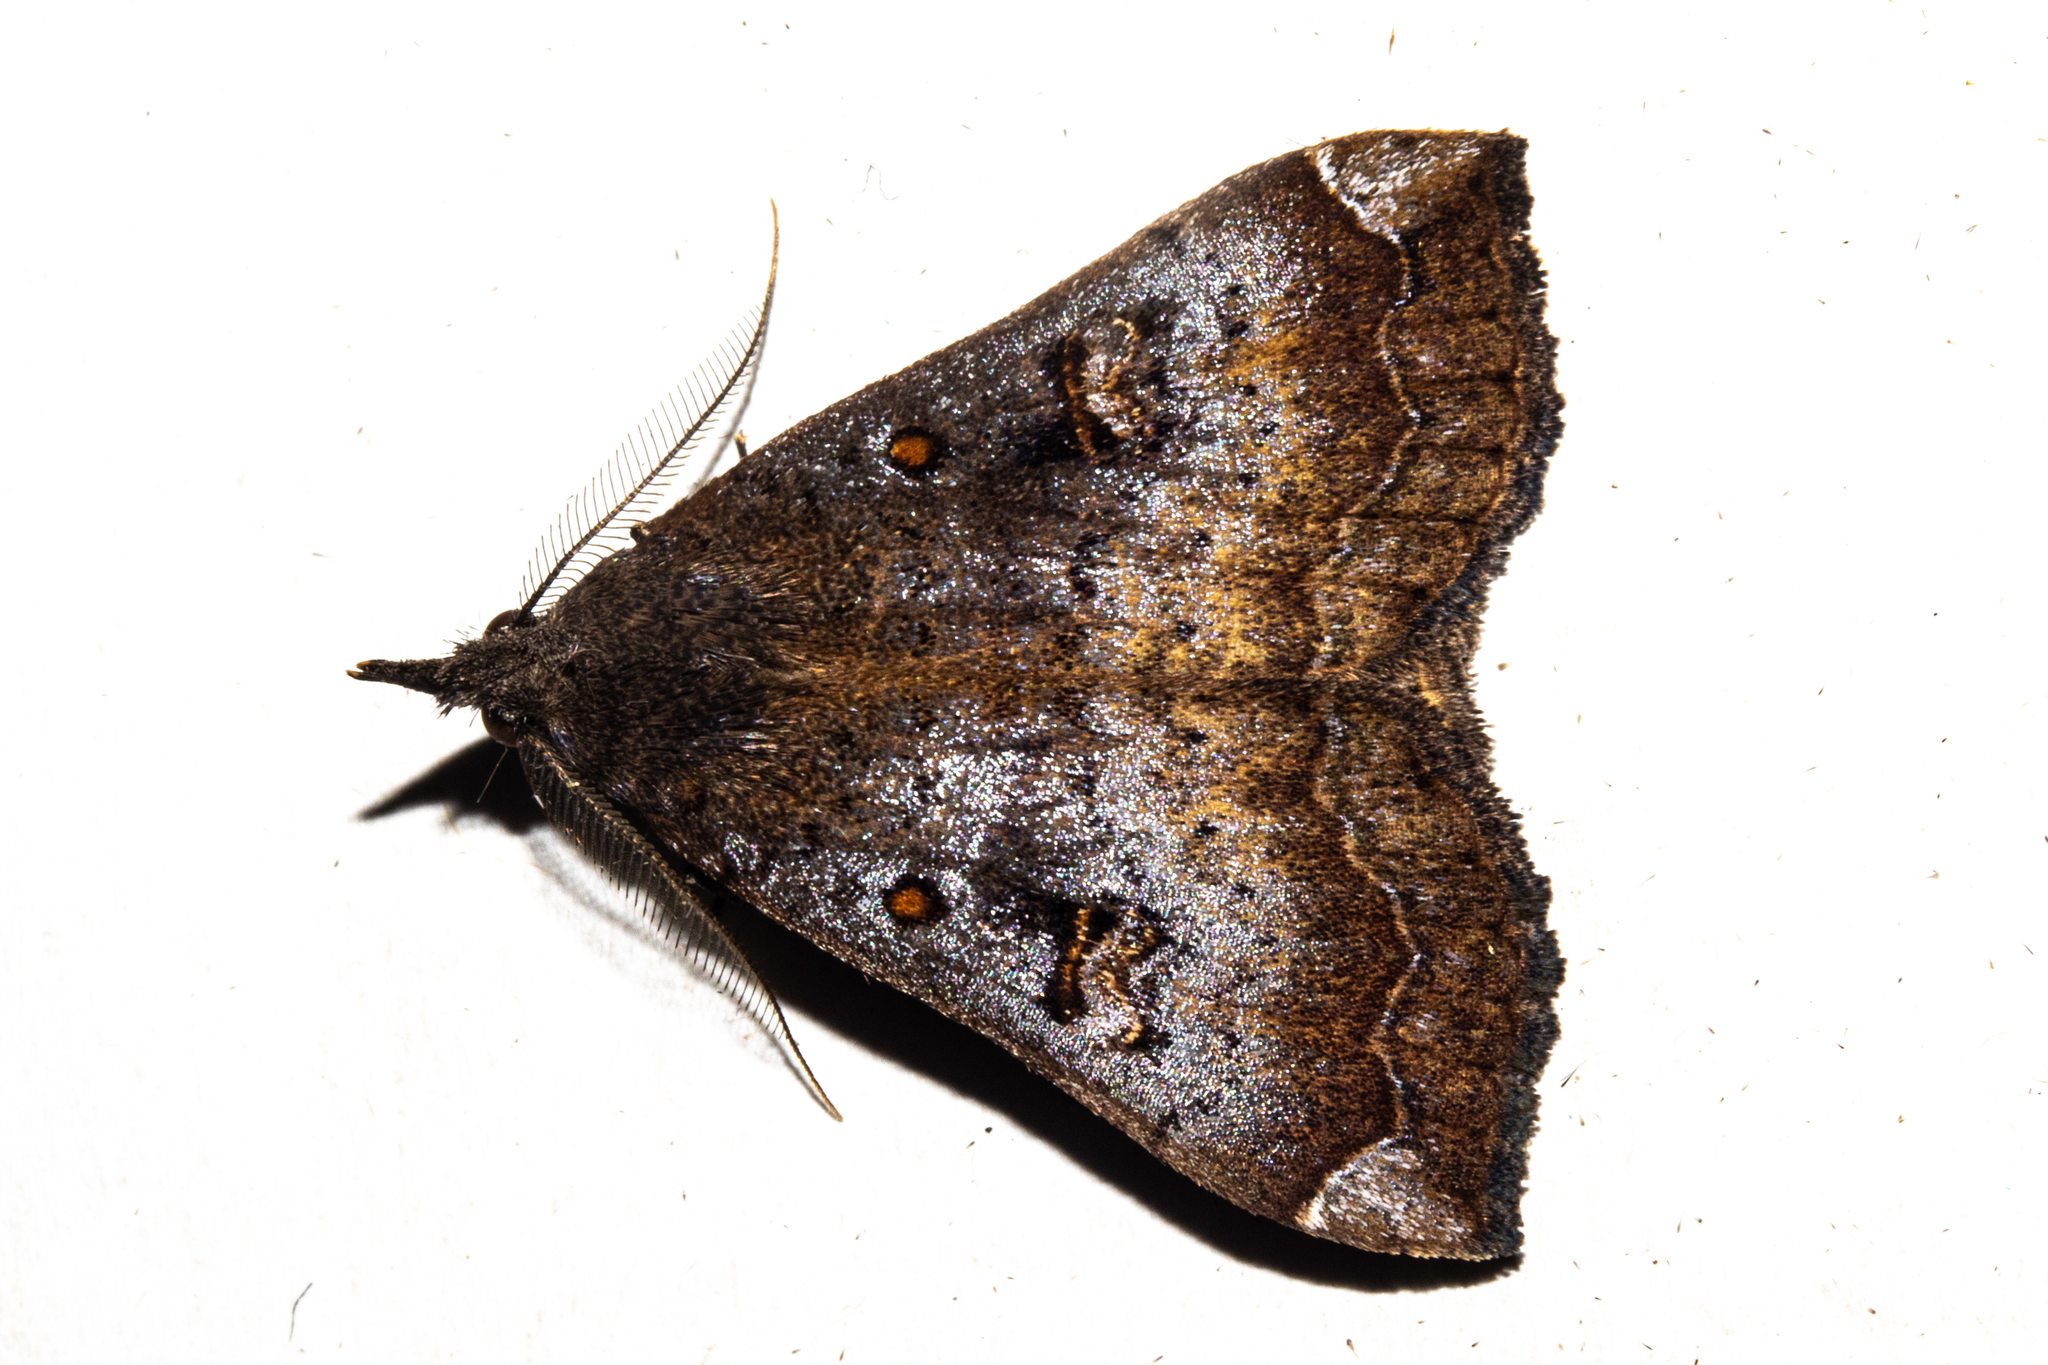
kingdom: Animalia
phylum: Arthropoda
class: Insecta
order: Lepidoptera
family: Erebidae
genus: Rhapsa
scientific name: Rhapsa scotosialis
